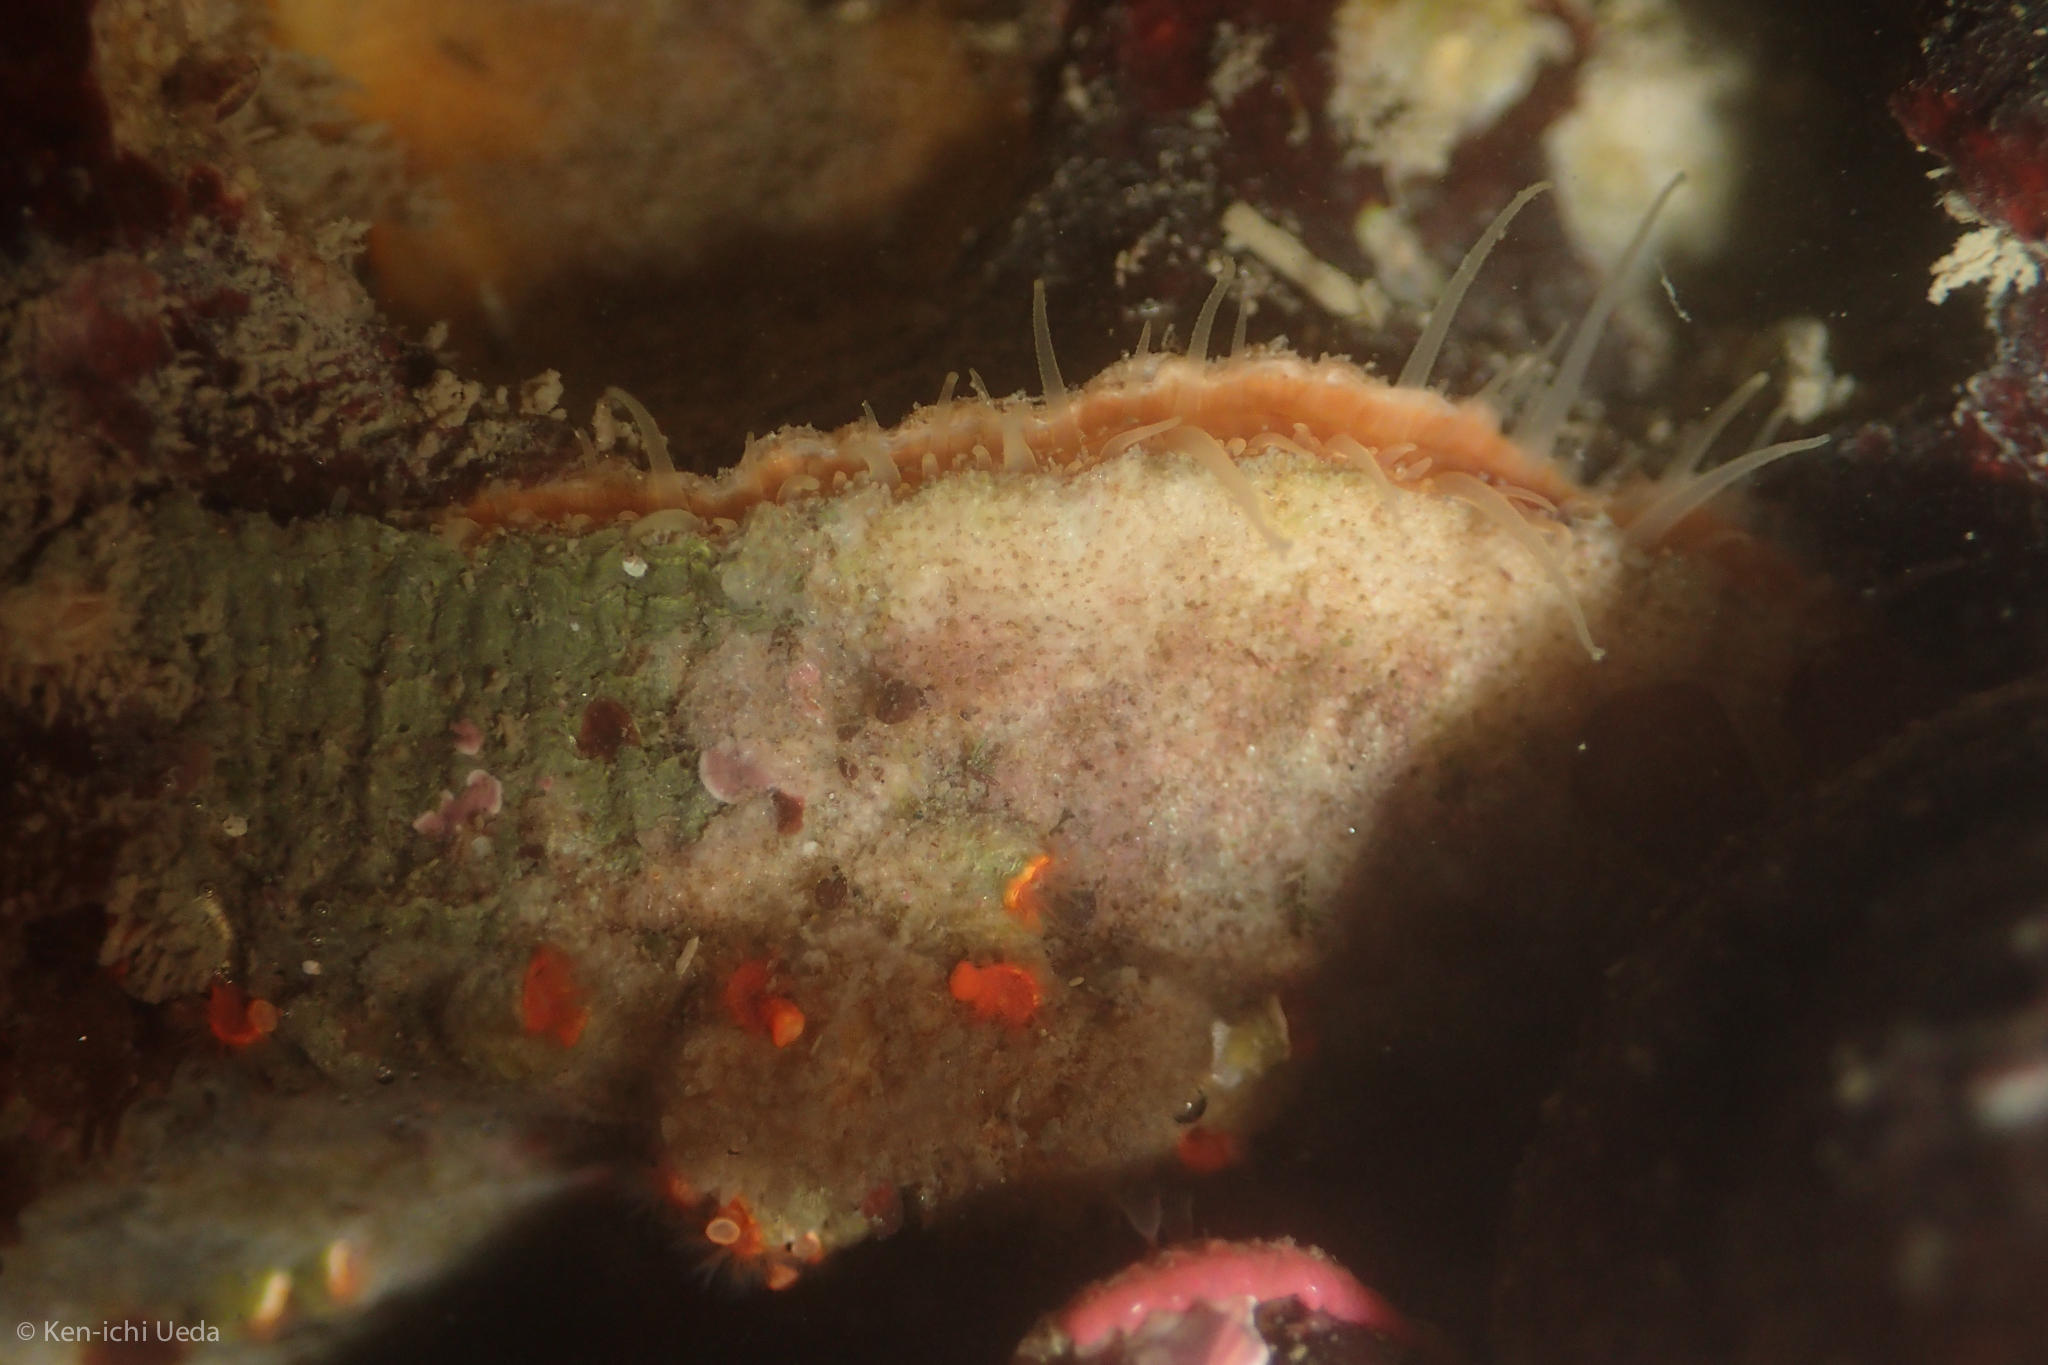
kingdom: Animalia
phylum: Mollusca
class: Bivalvia
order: Pectinida
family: Pectinidae
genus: Crassadoma
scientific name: Crassadoma gigantea
